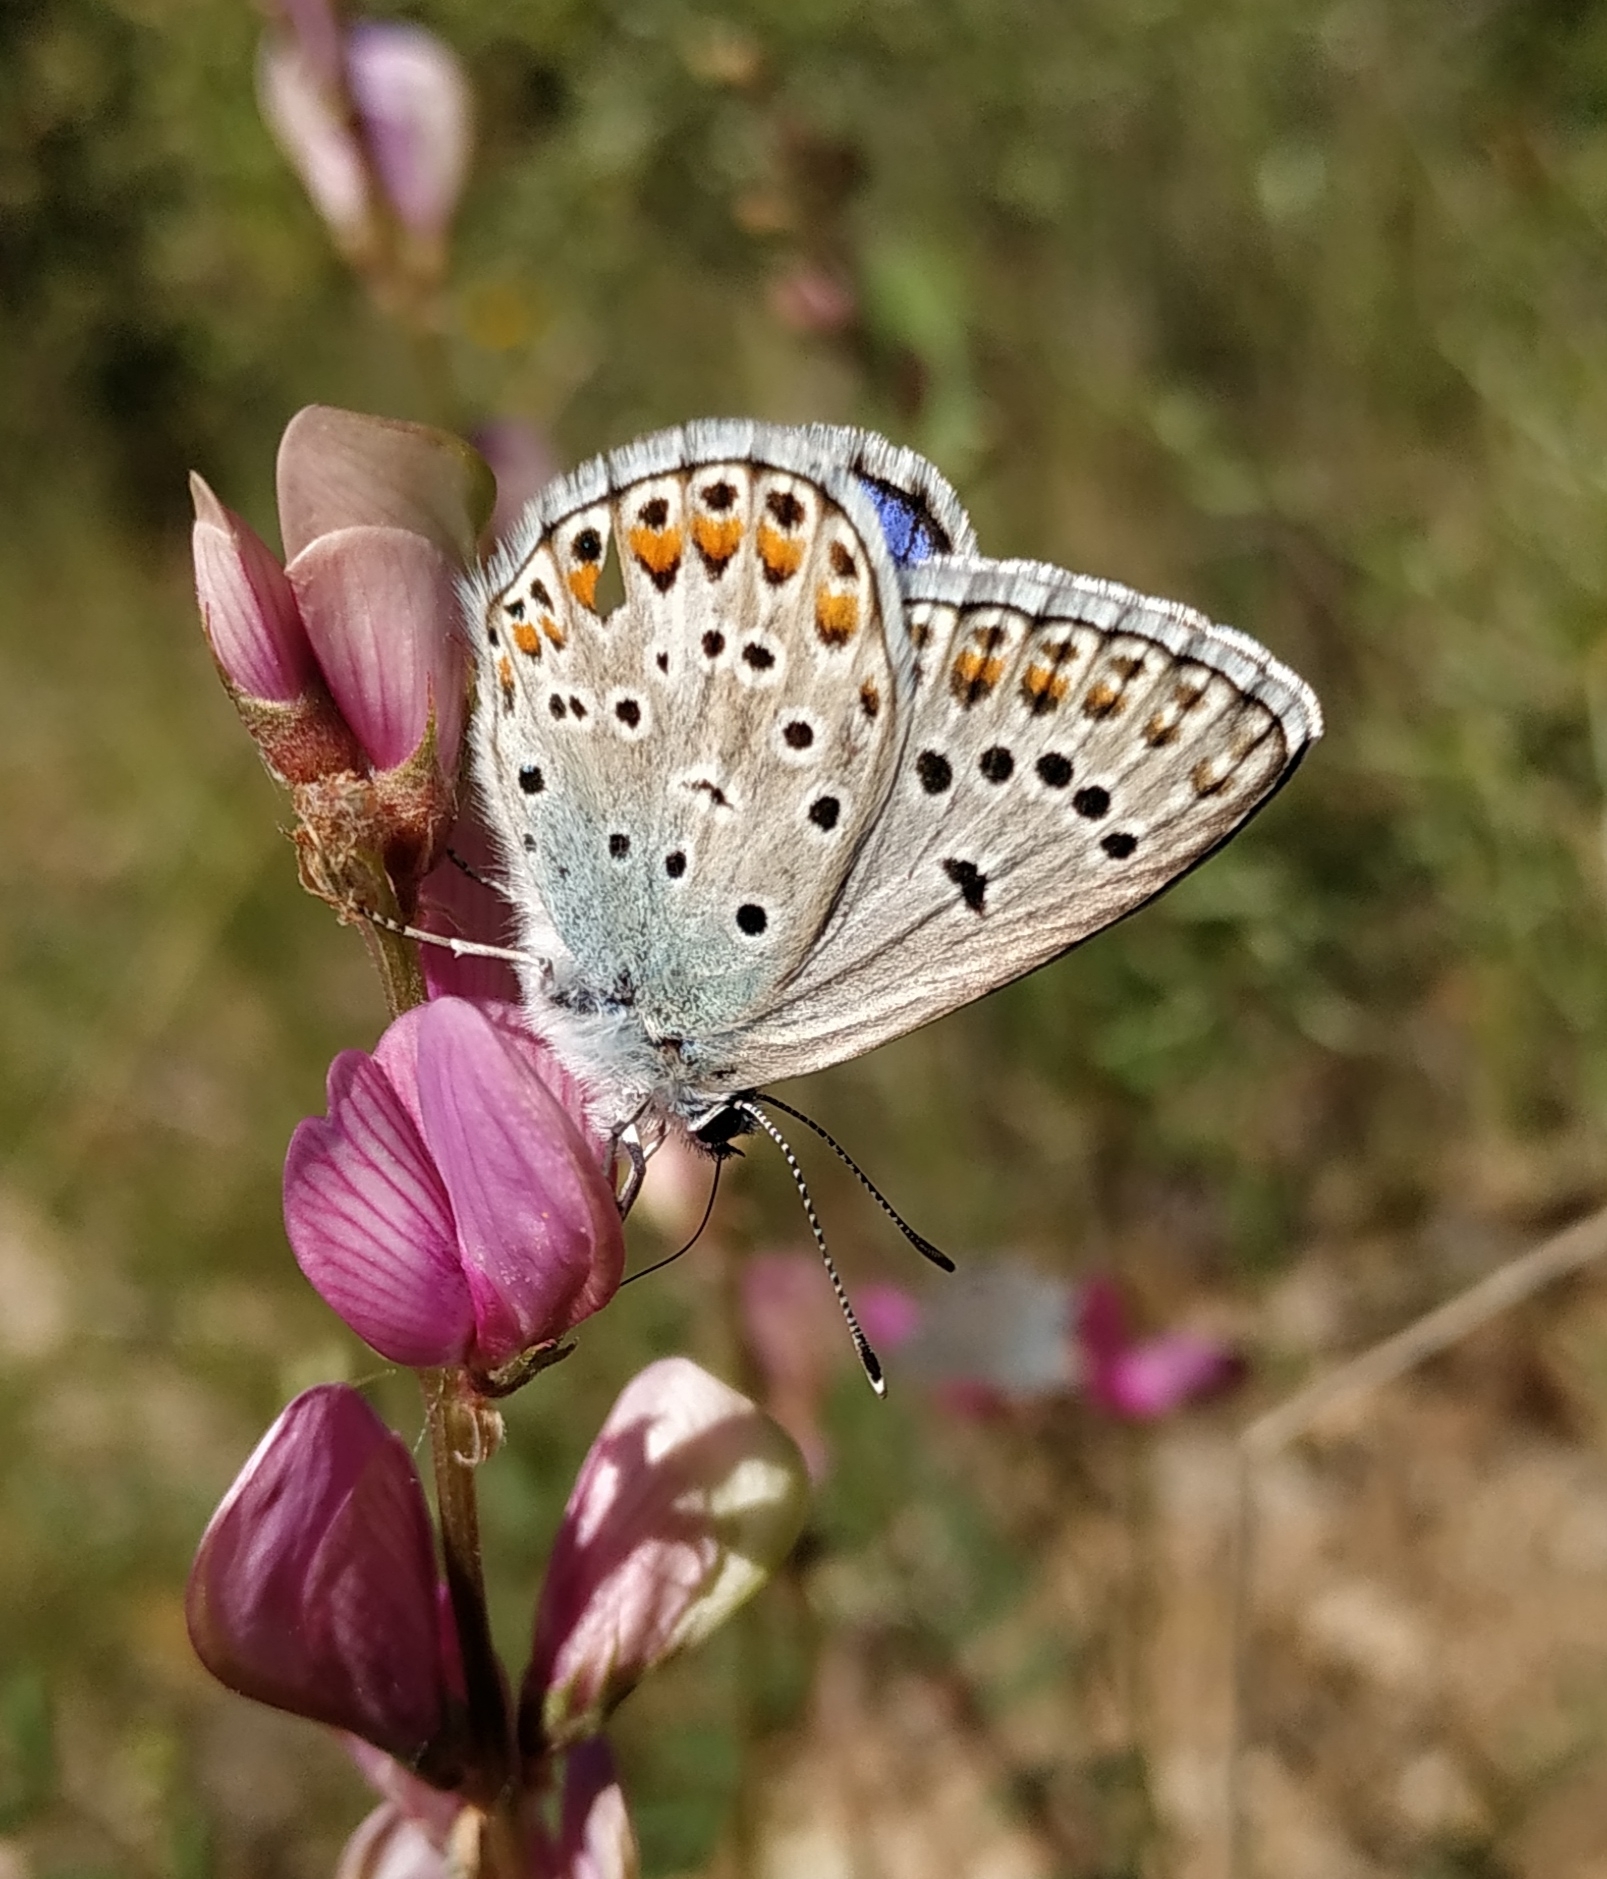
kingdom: Animalia
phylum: Arthropoda
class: Insecta
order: Lepidoptera
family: Lycaenidae
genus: Plebicula
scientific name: Plebicula escheri
